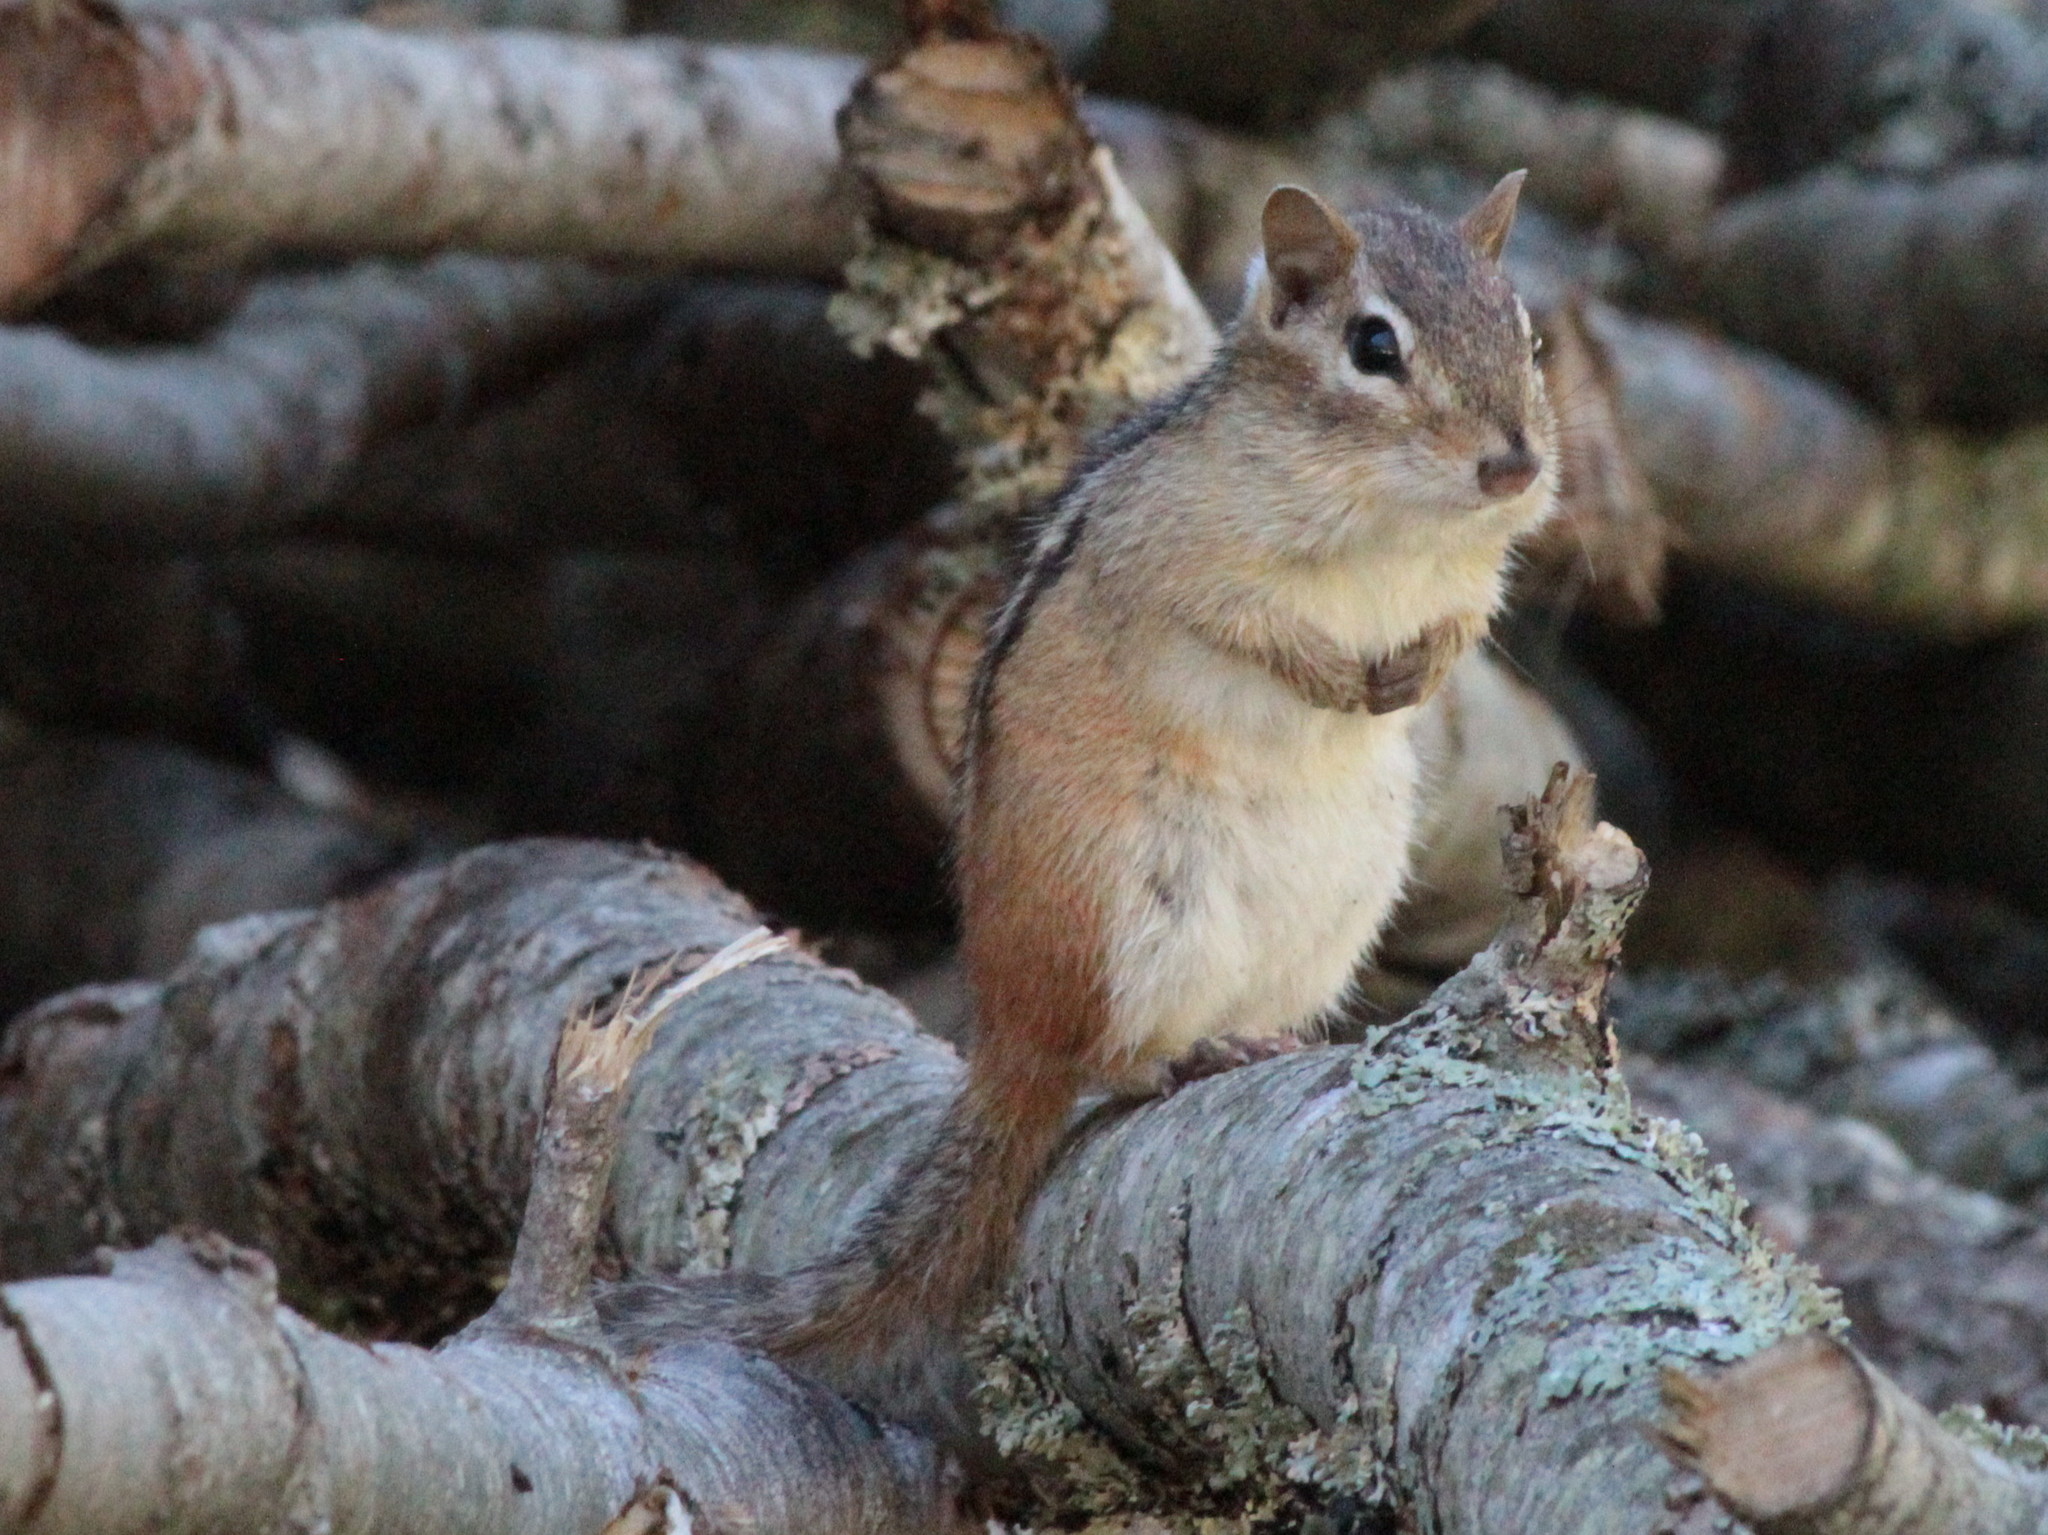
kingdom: Animalia
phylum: Chordata
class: Mammalia
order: Rodentia
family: Sciuridae
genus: Tamias
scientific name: Tamias striatus
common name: Eastern chipmunk
